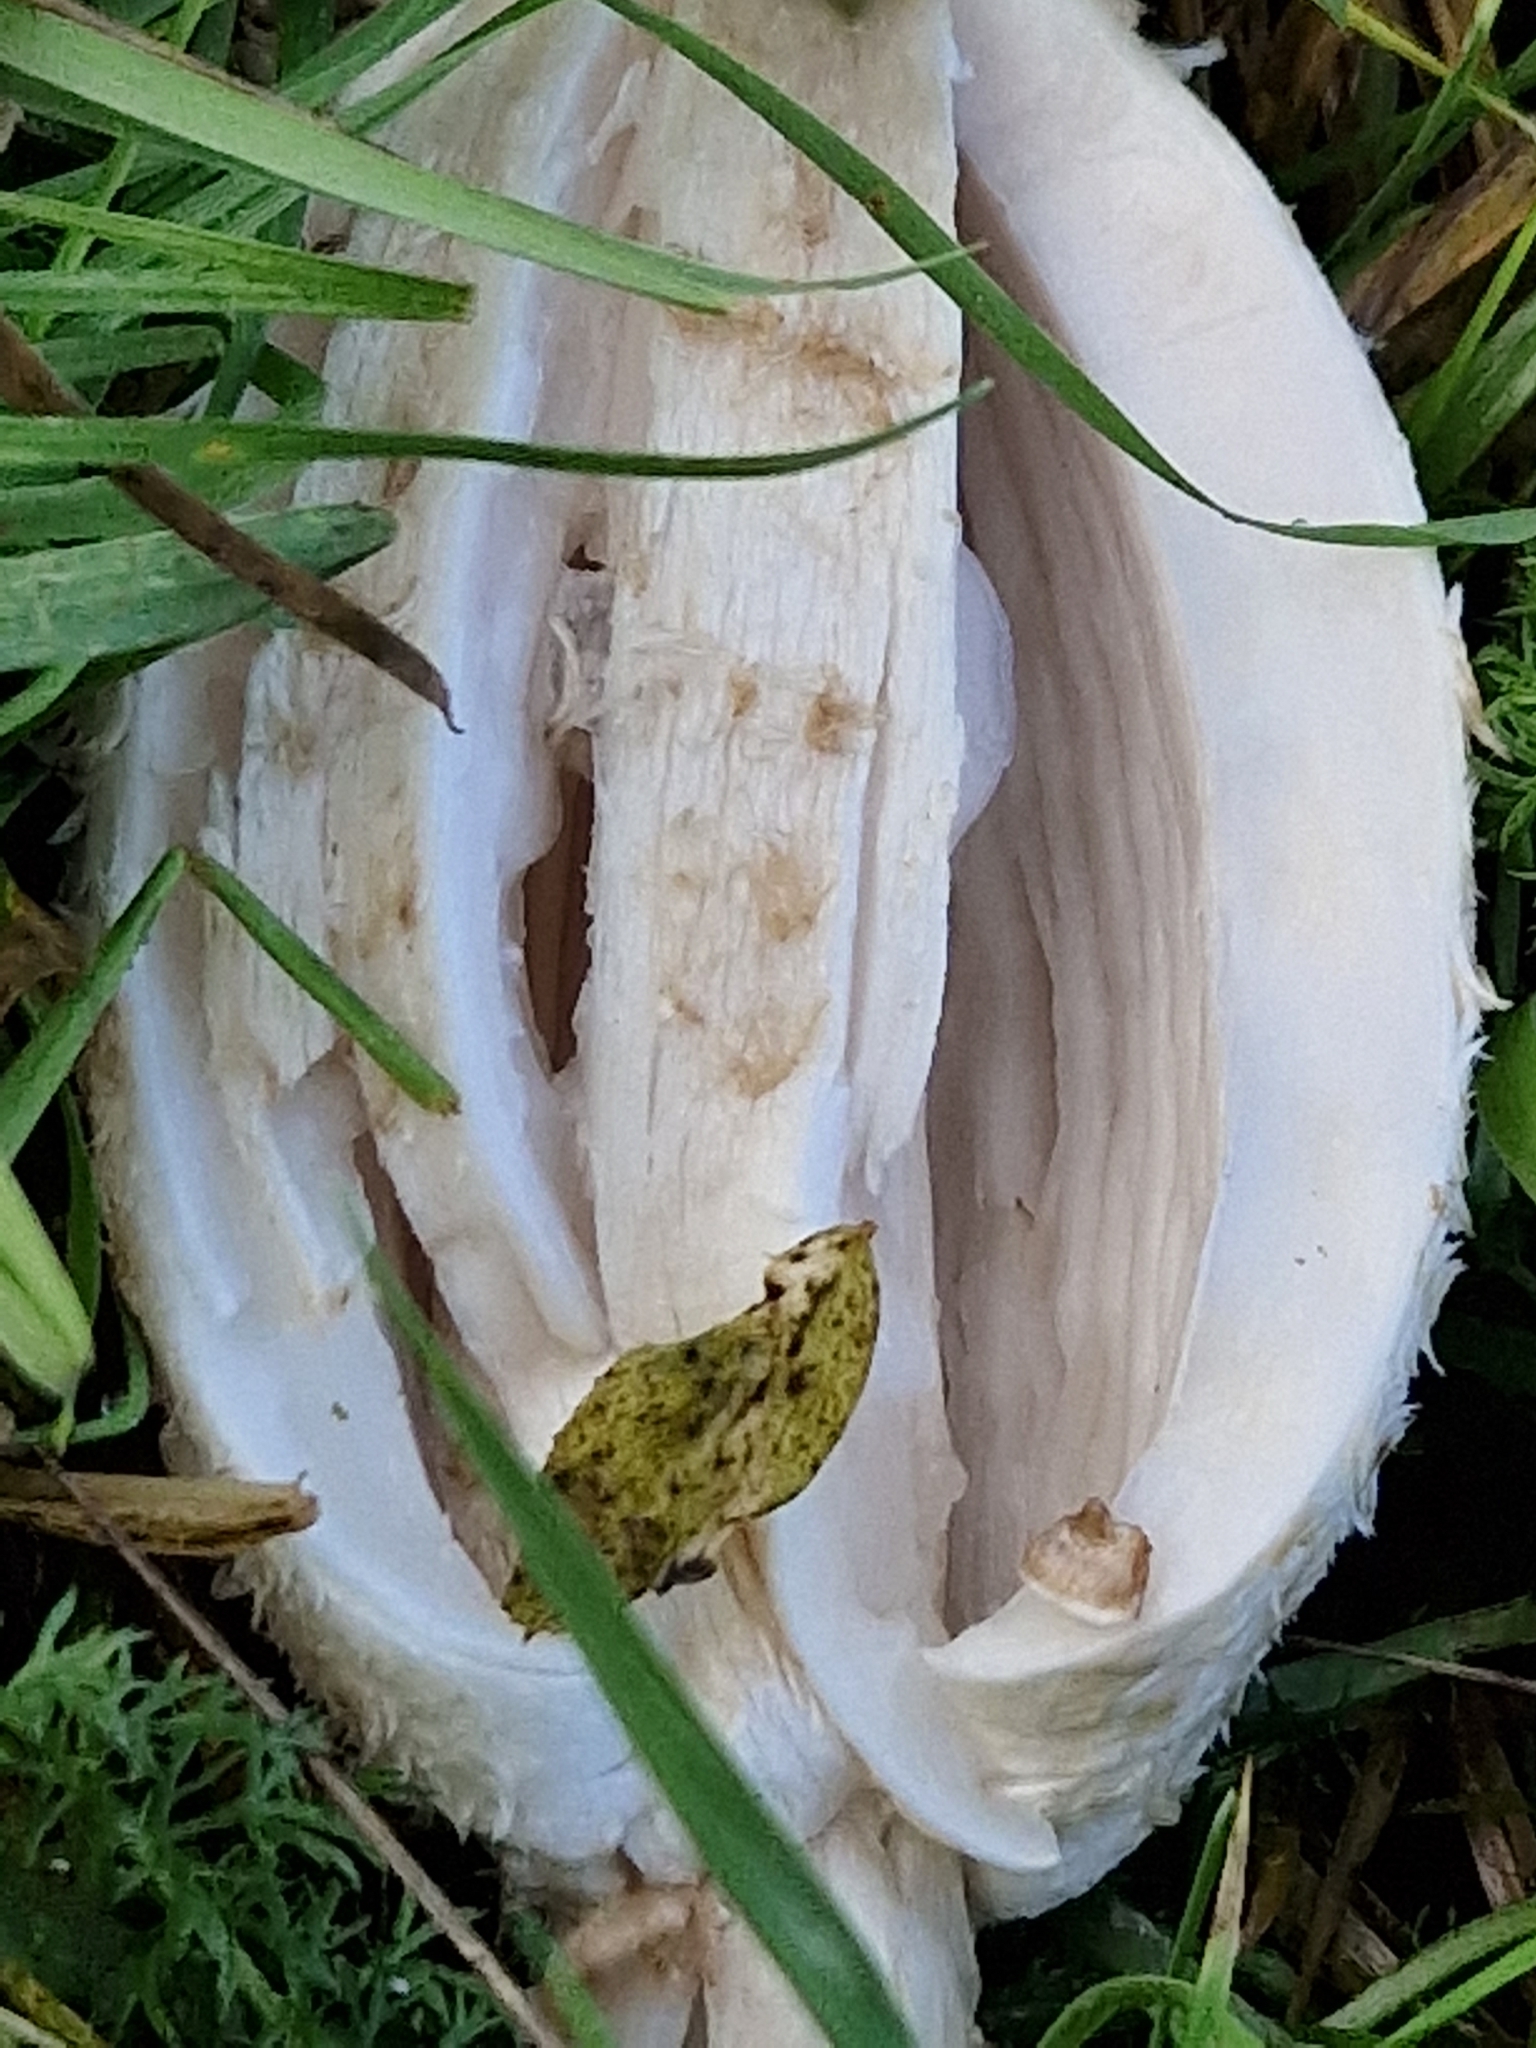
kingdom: Fungi
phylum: Basidiomycota
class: Agaricomycetes
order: Agaricales
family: Agaricaceae
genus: Coprinus
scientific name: Coprinus comatus
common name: Lawyer's wig
